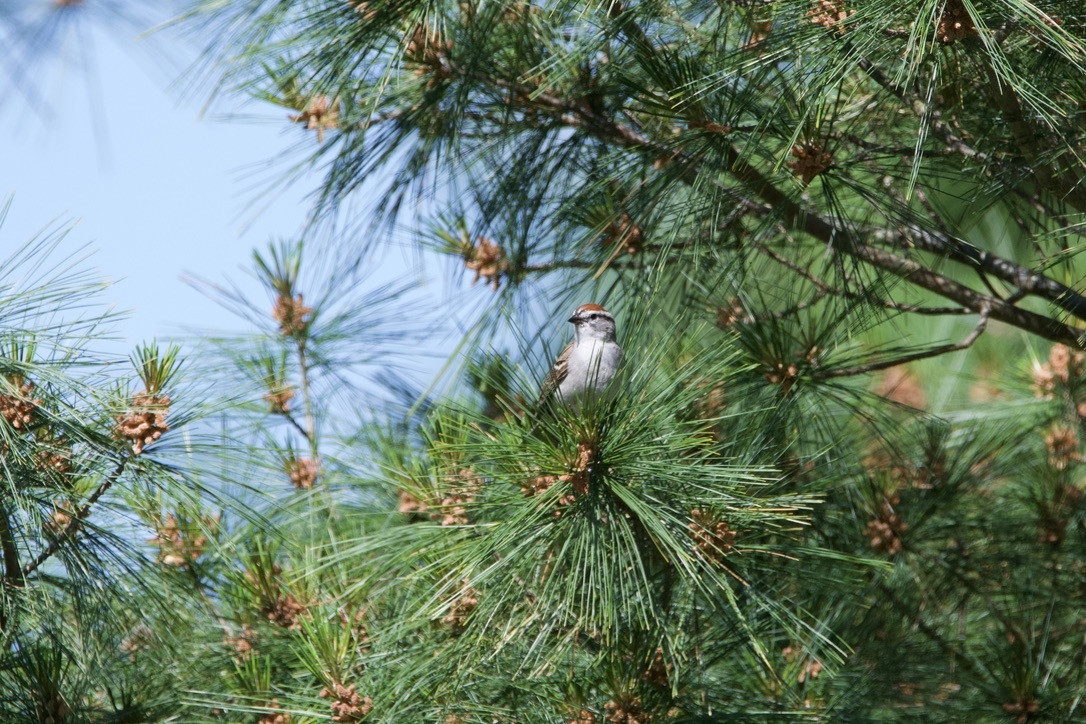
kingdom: Animalia
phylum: Chordata
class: Aves
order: Passeriformes
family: Passerellidae
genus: Spizella
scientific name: Spizella passerina
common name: Chipping sparrow
